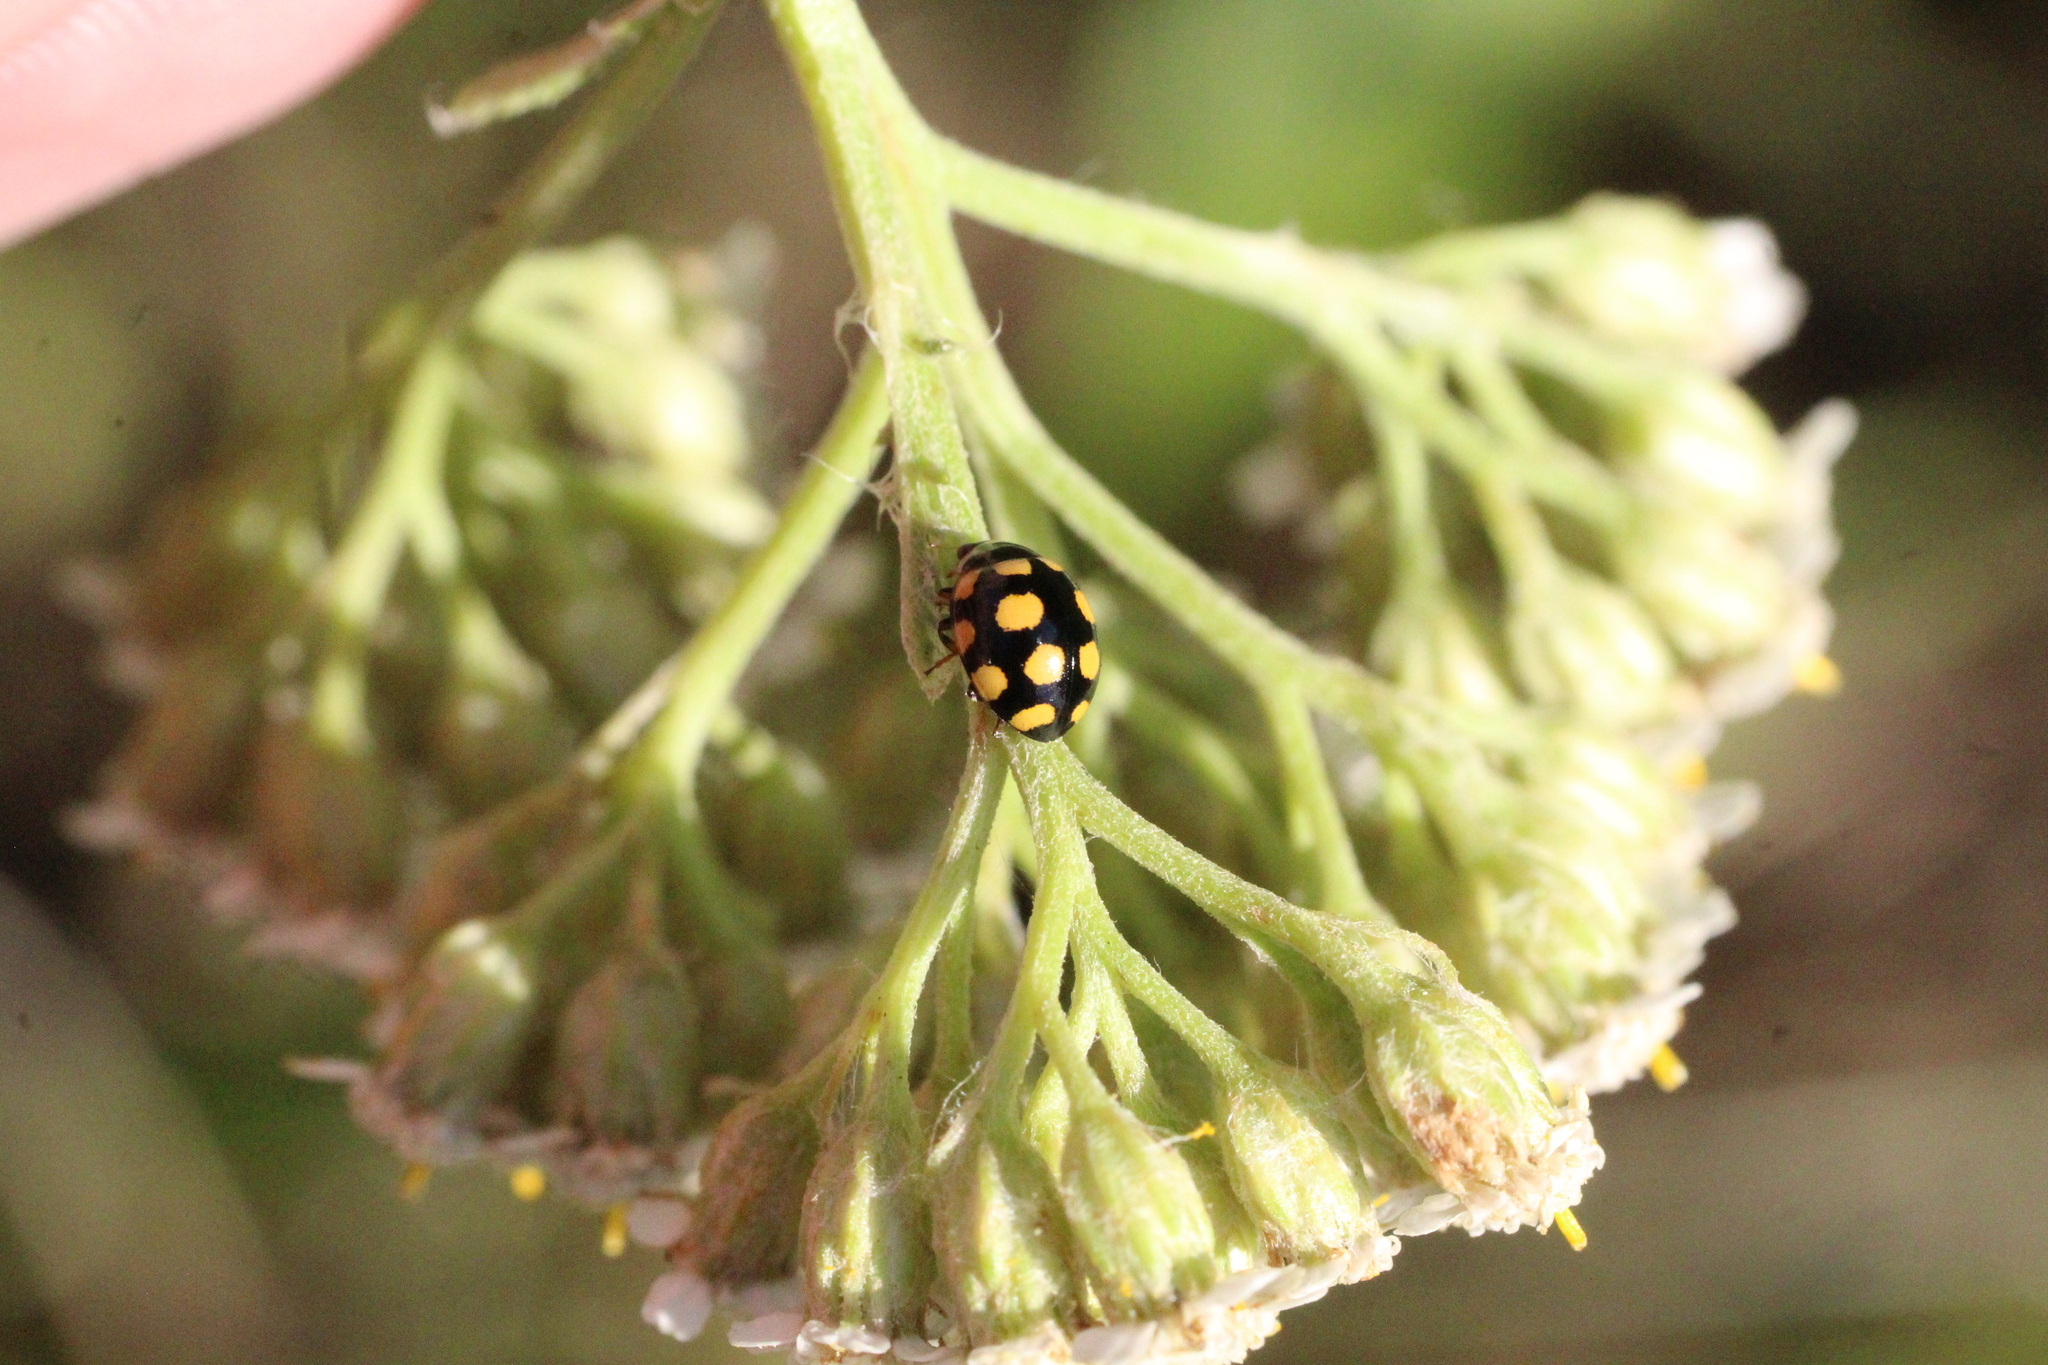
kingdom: Animalia
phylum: Arthropoda
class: Insecta
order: Coleoptera
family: Coccinellidae
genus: Coccinula
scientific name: Coccinula quatuordecimpustulata
